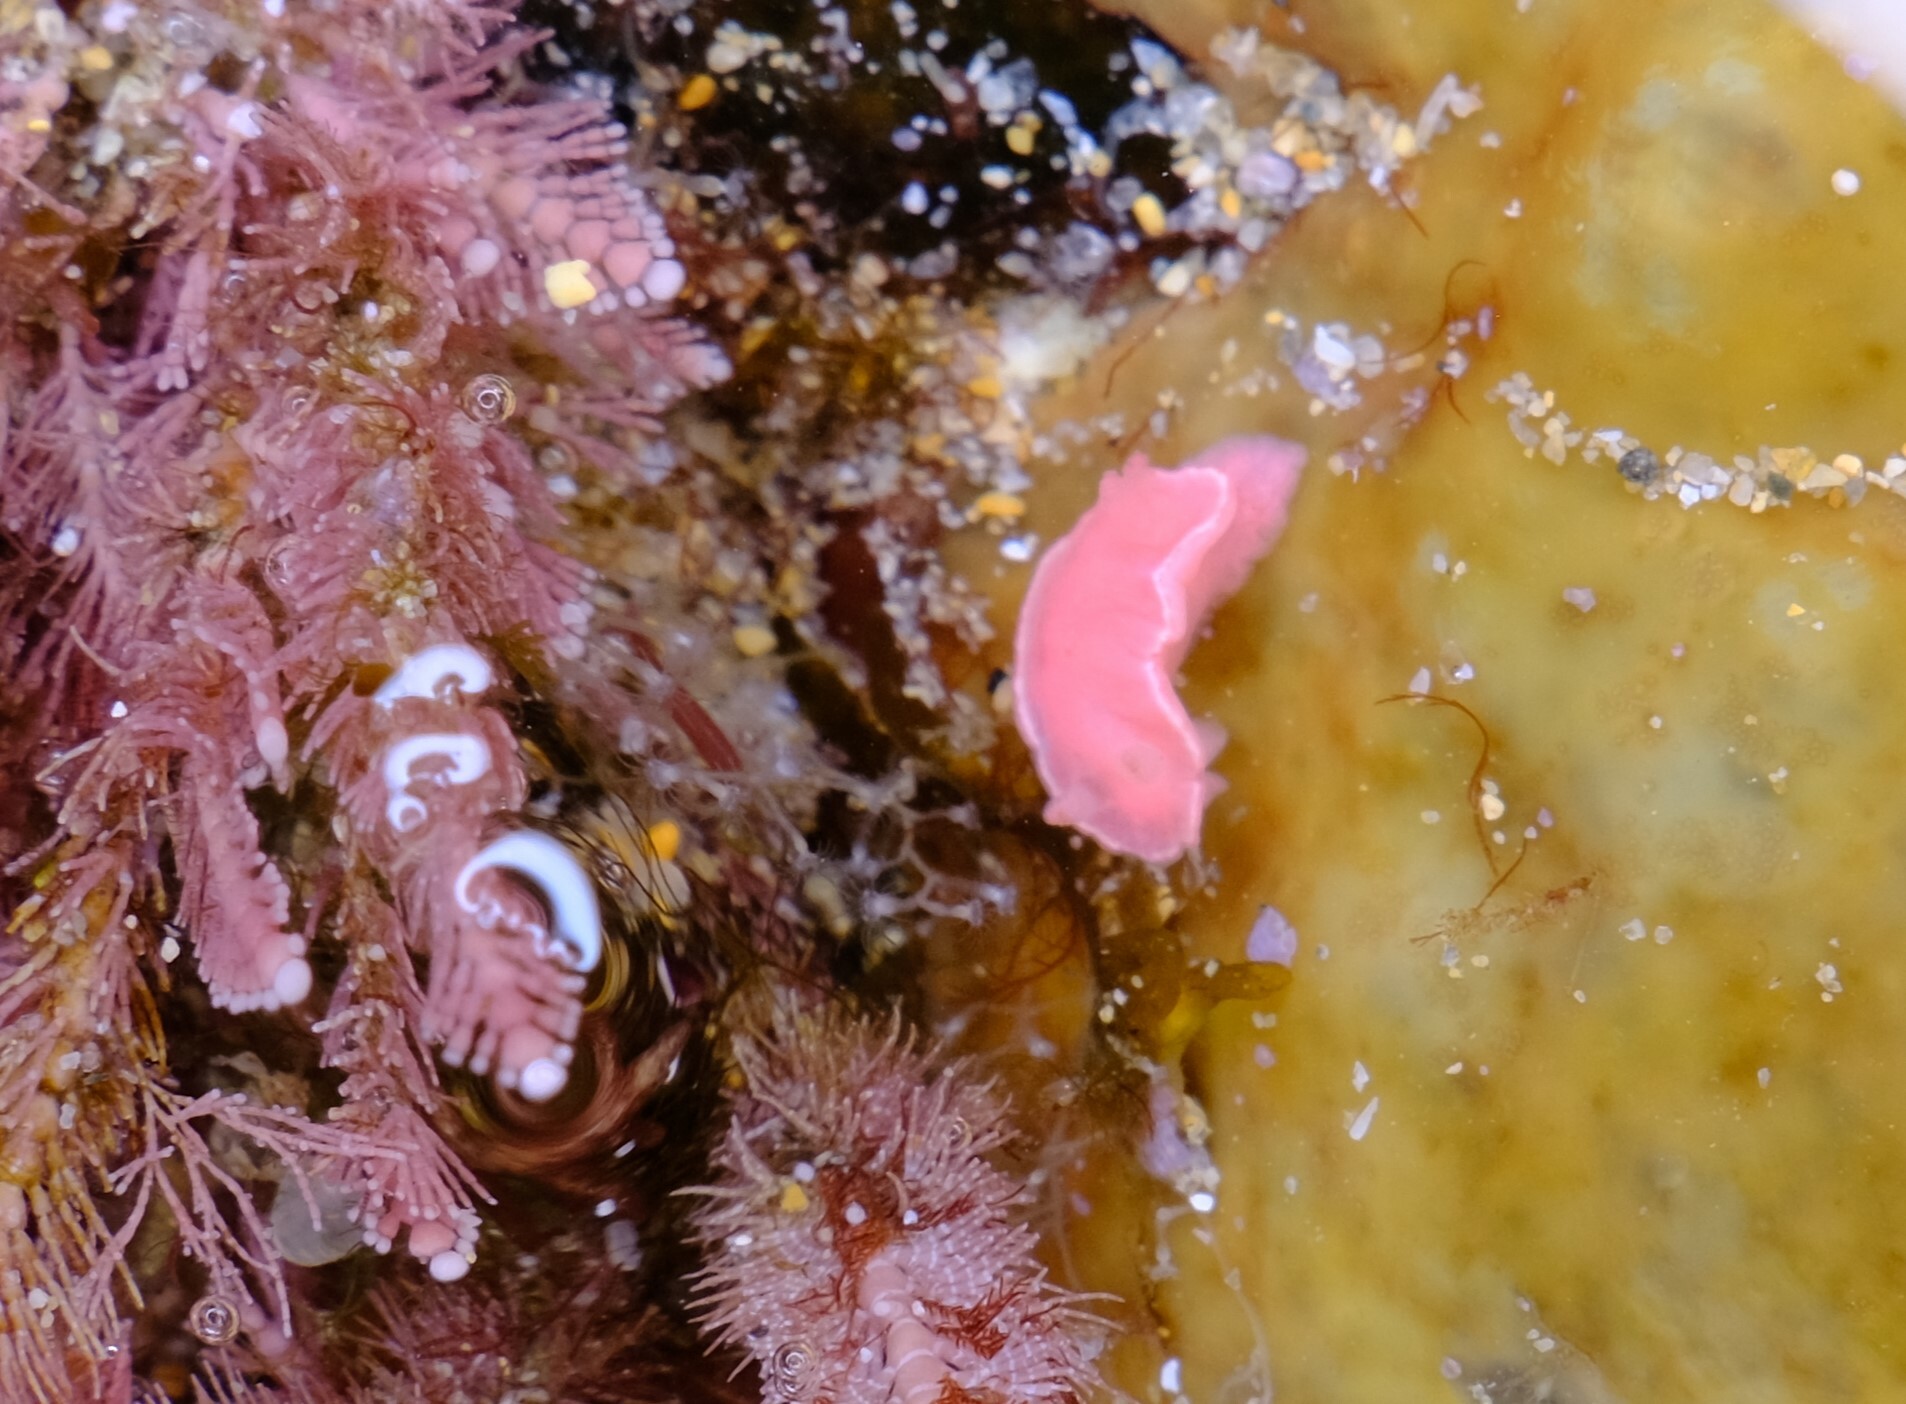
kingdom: Animalia
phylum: Mollusca
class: Gastropoda
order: Nudibranchia
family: Chromodorididae
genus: Verconia
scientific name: Verconia verconis
